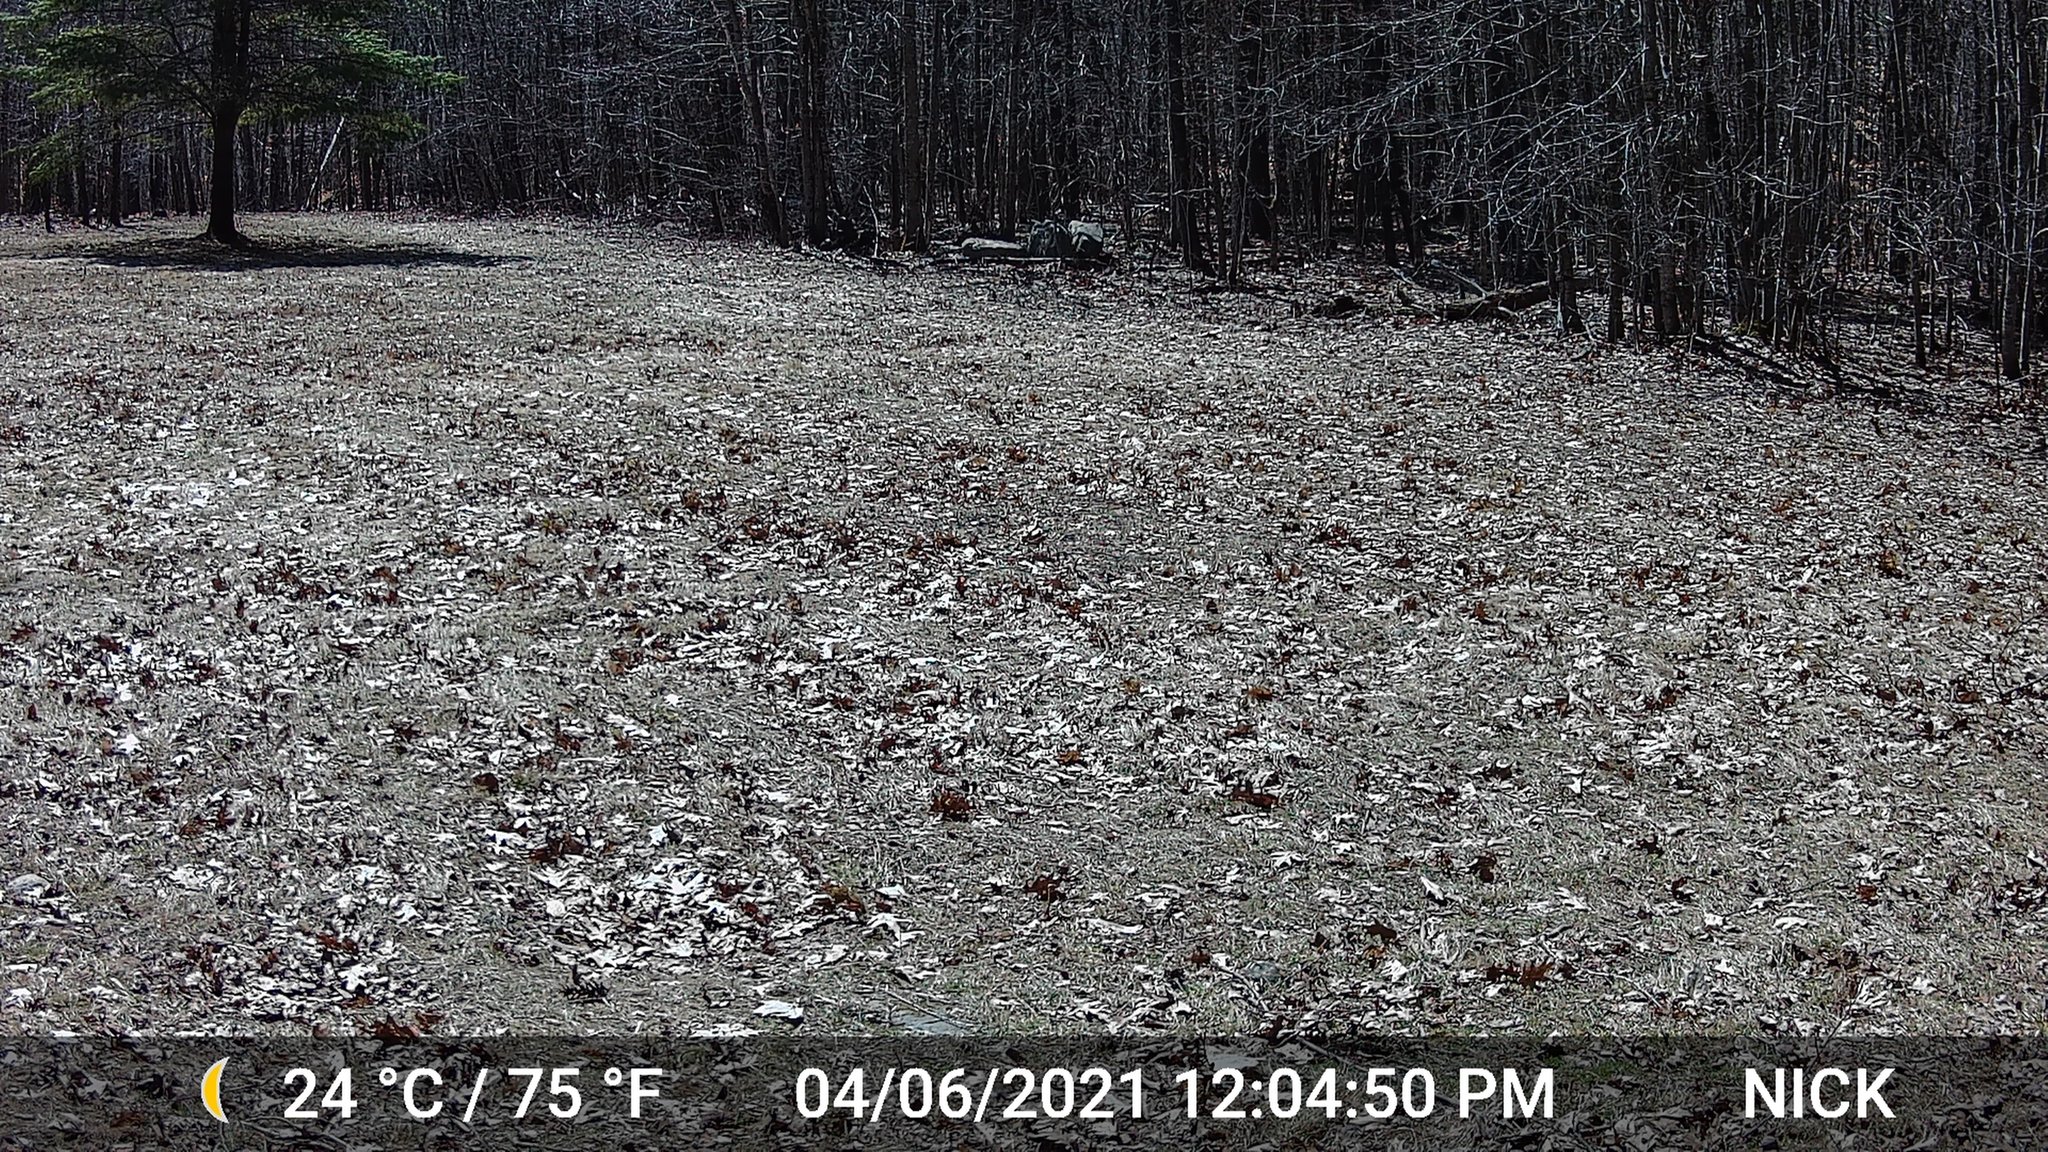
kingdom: Animalia
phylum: Chordata
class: Aves
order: Galliformes
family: Phasianidae
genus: Meleagris
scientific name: Meleagris gallopavo
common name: Wild turkey
